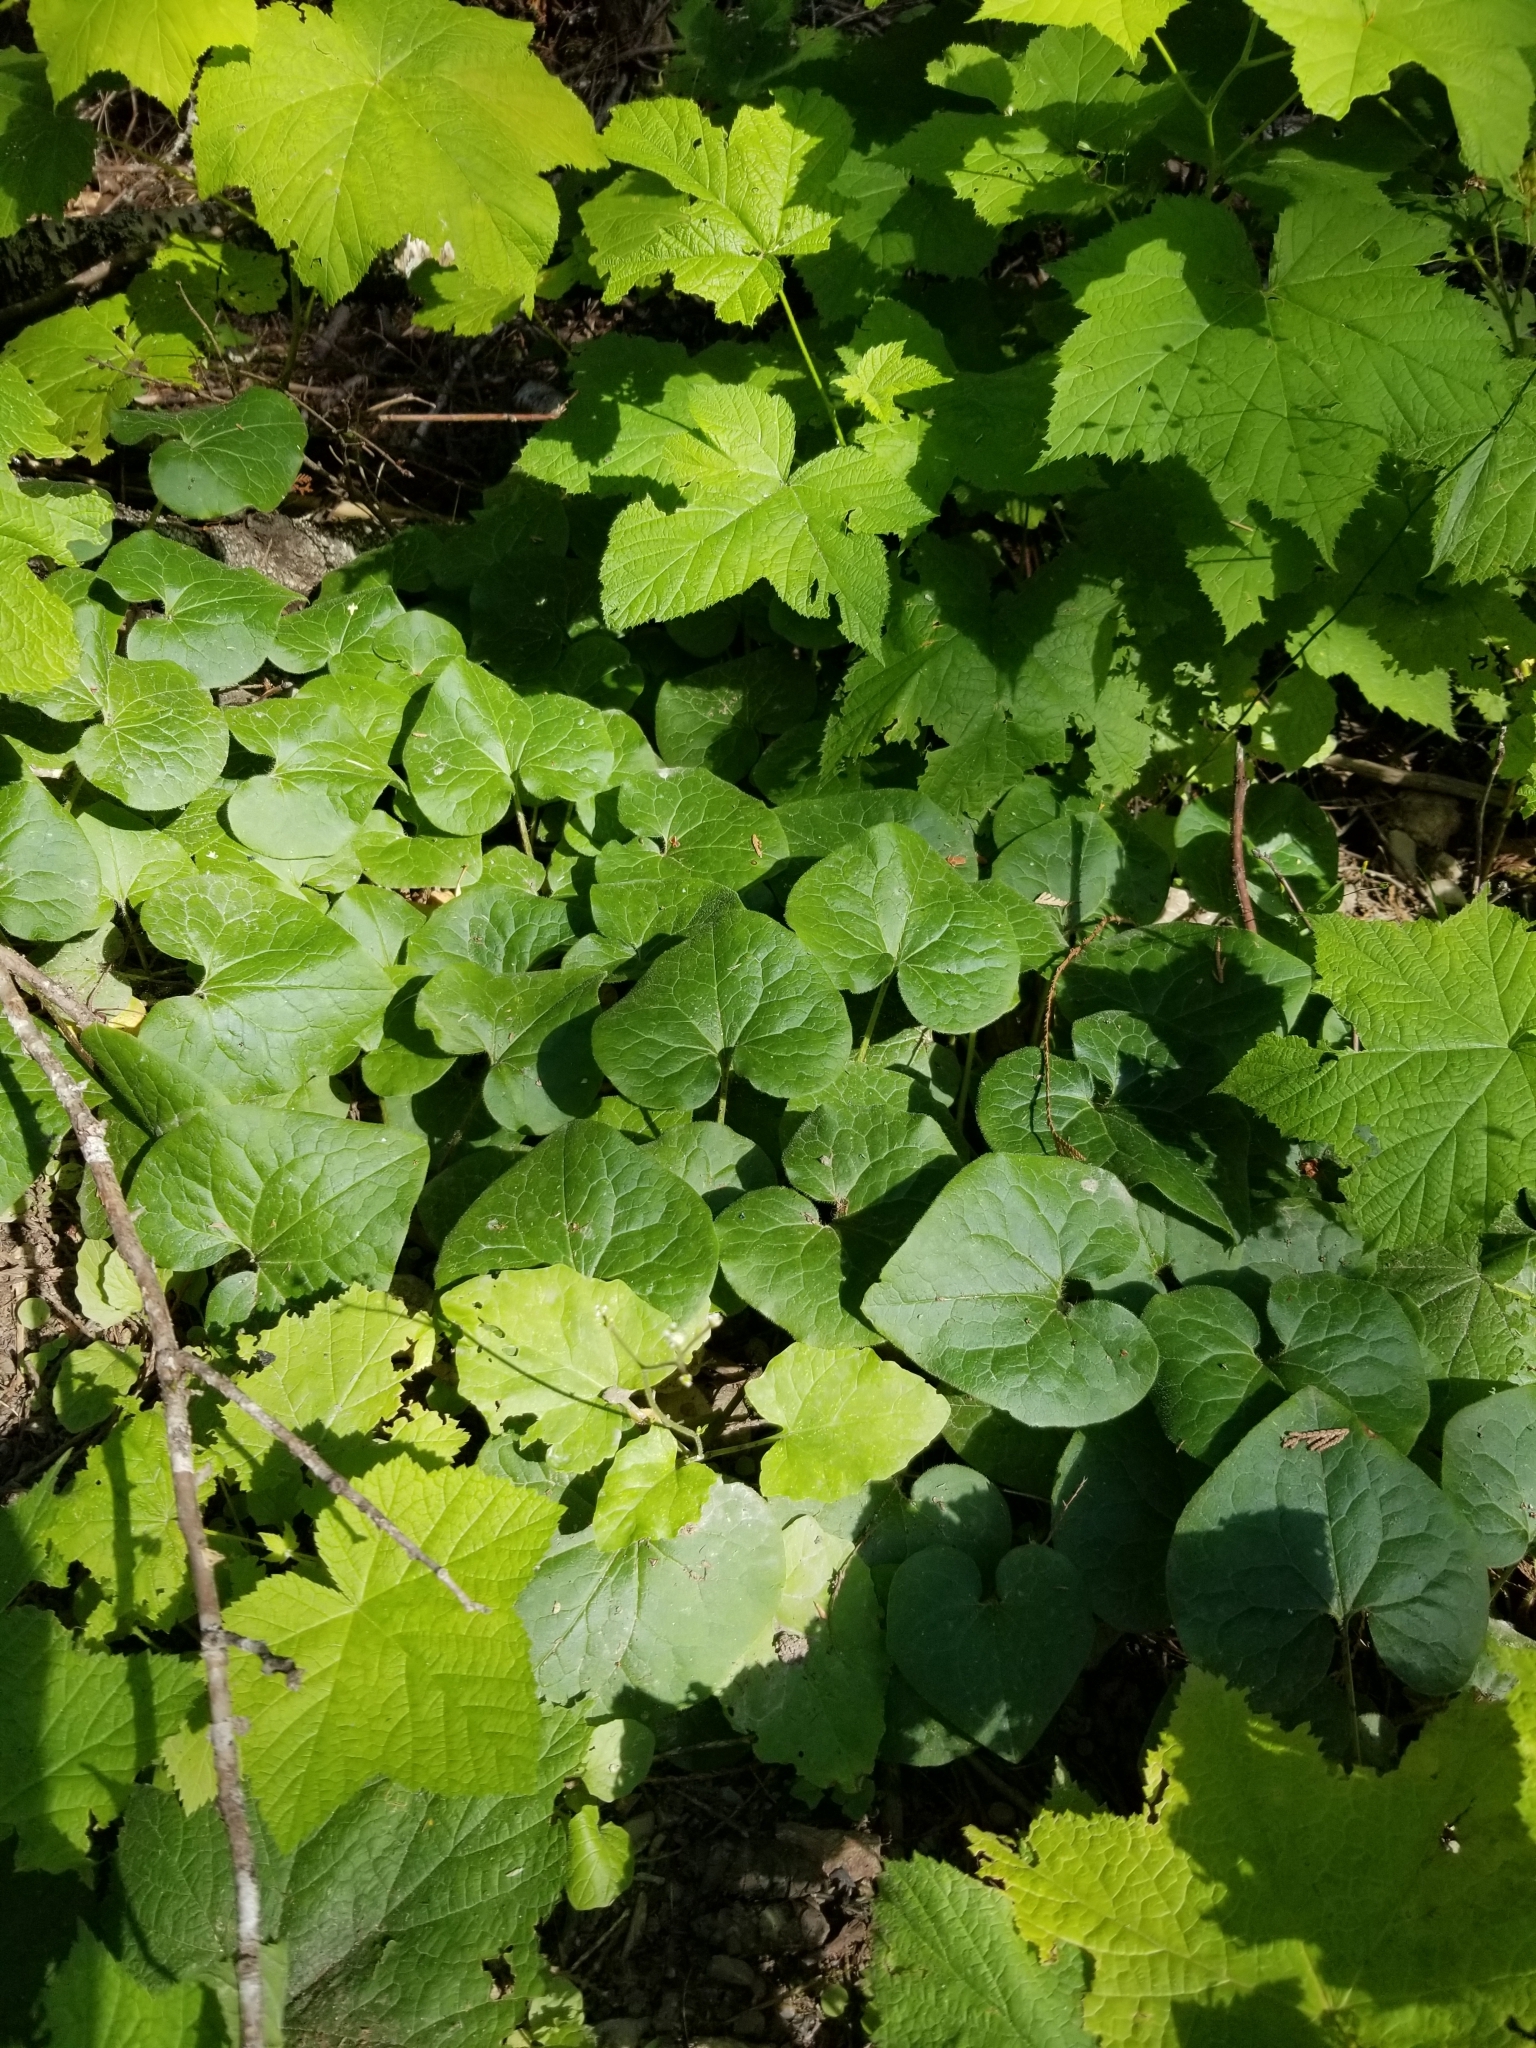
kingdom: Plantae
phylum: Tracheophyta
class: Magnoliopsida
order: Piperales
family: Aristolochiaceae
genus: Asarum
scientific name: Asarum caudatum
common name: Wild ginger
